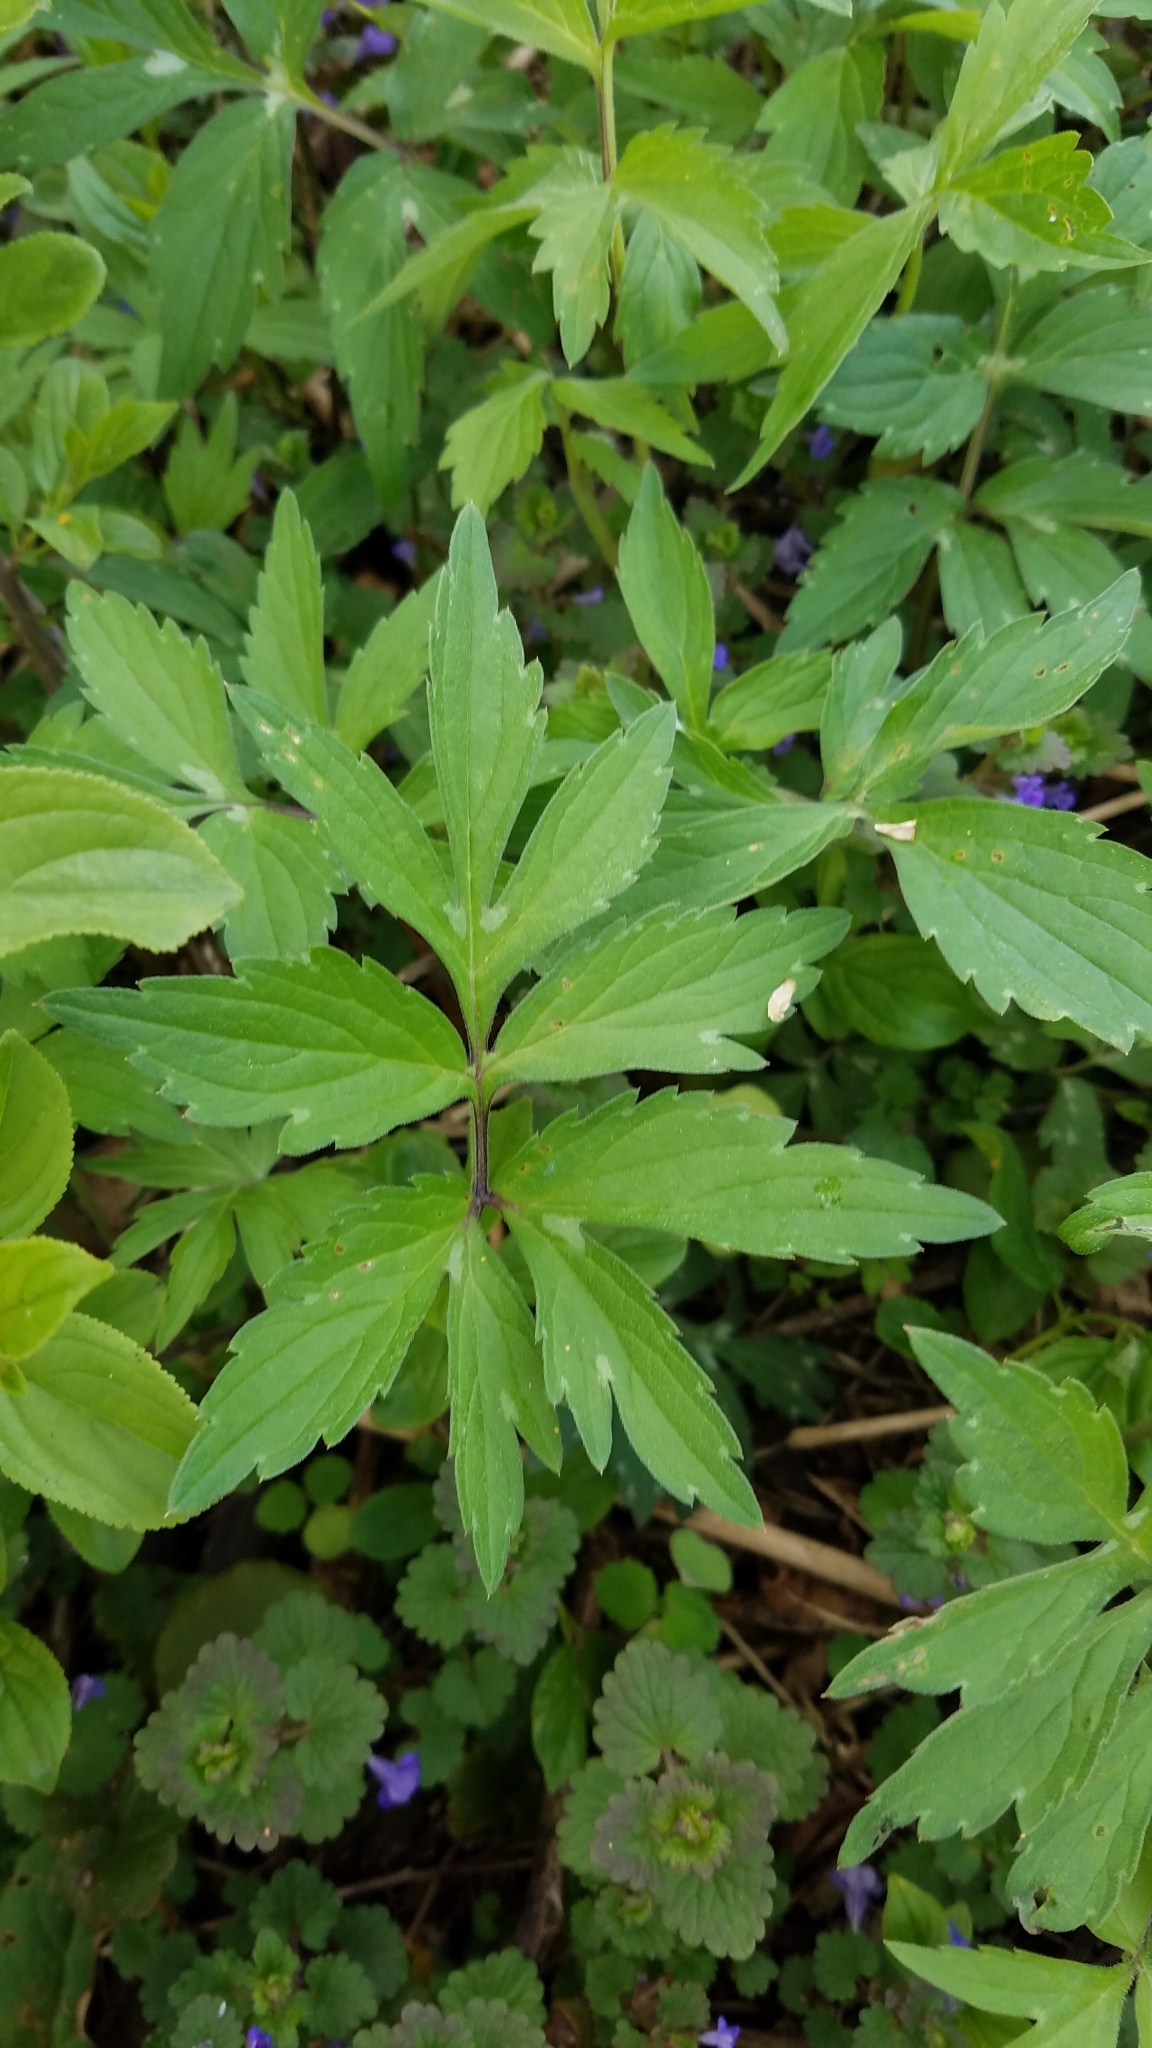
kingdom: Plantae
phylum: Tracheophyta
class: Magnoliopsida
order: Boraginales
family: Hydrophyllaceae
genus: Hydrophyllum
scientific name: Hydrophyllum virginianum
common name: Virginia waterleaf
